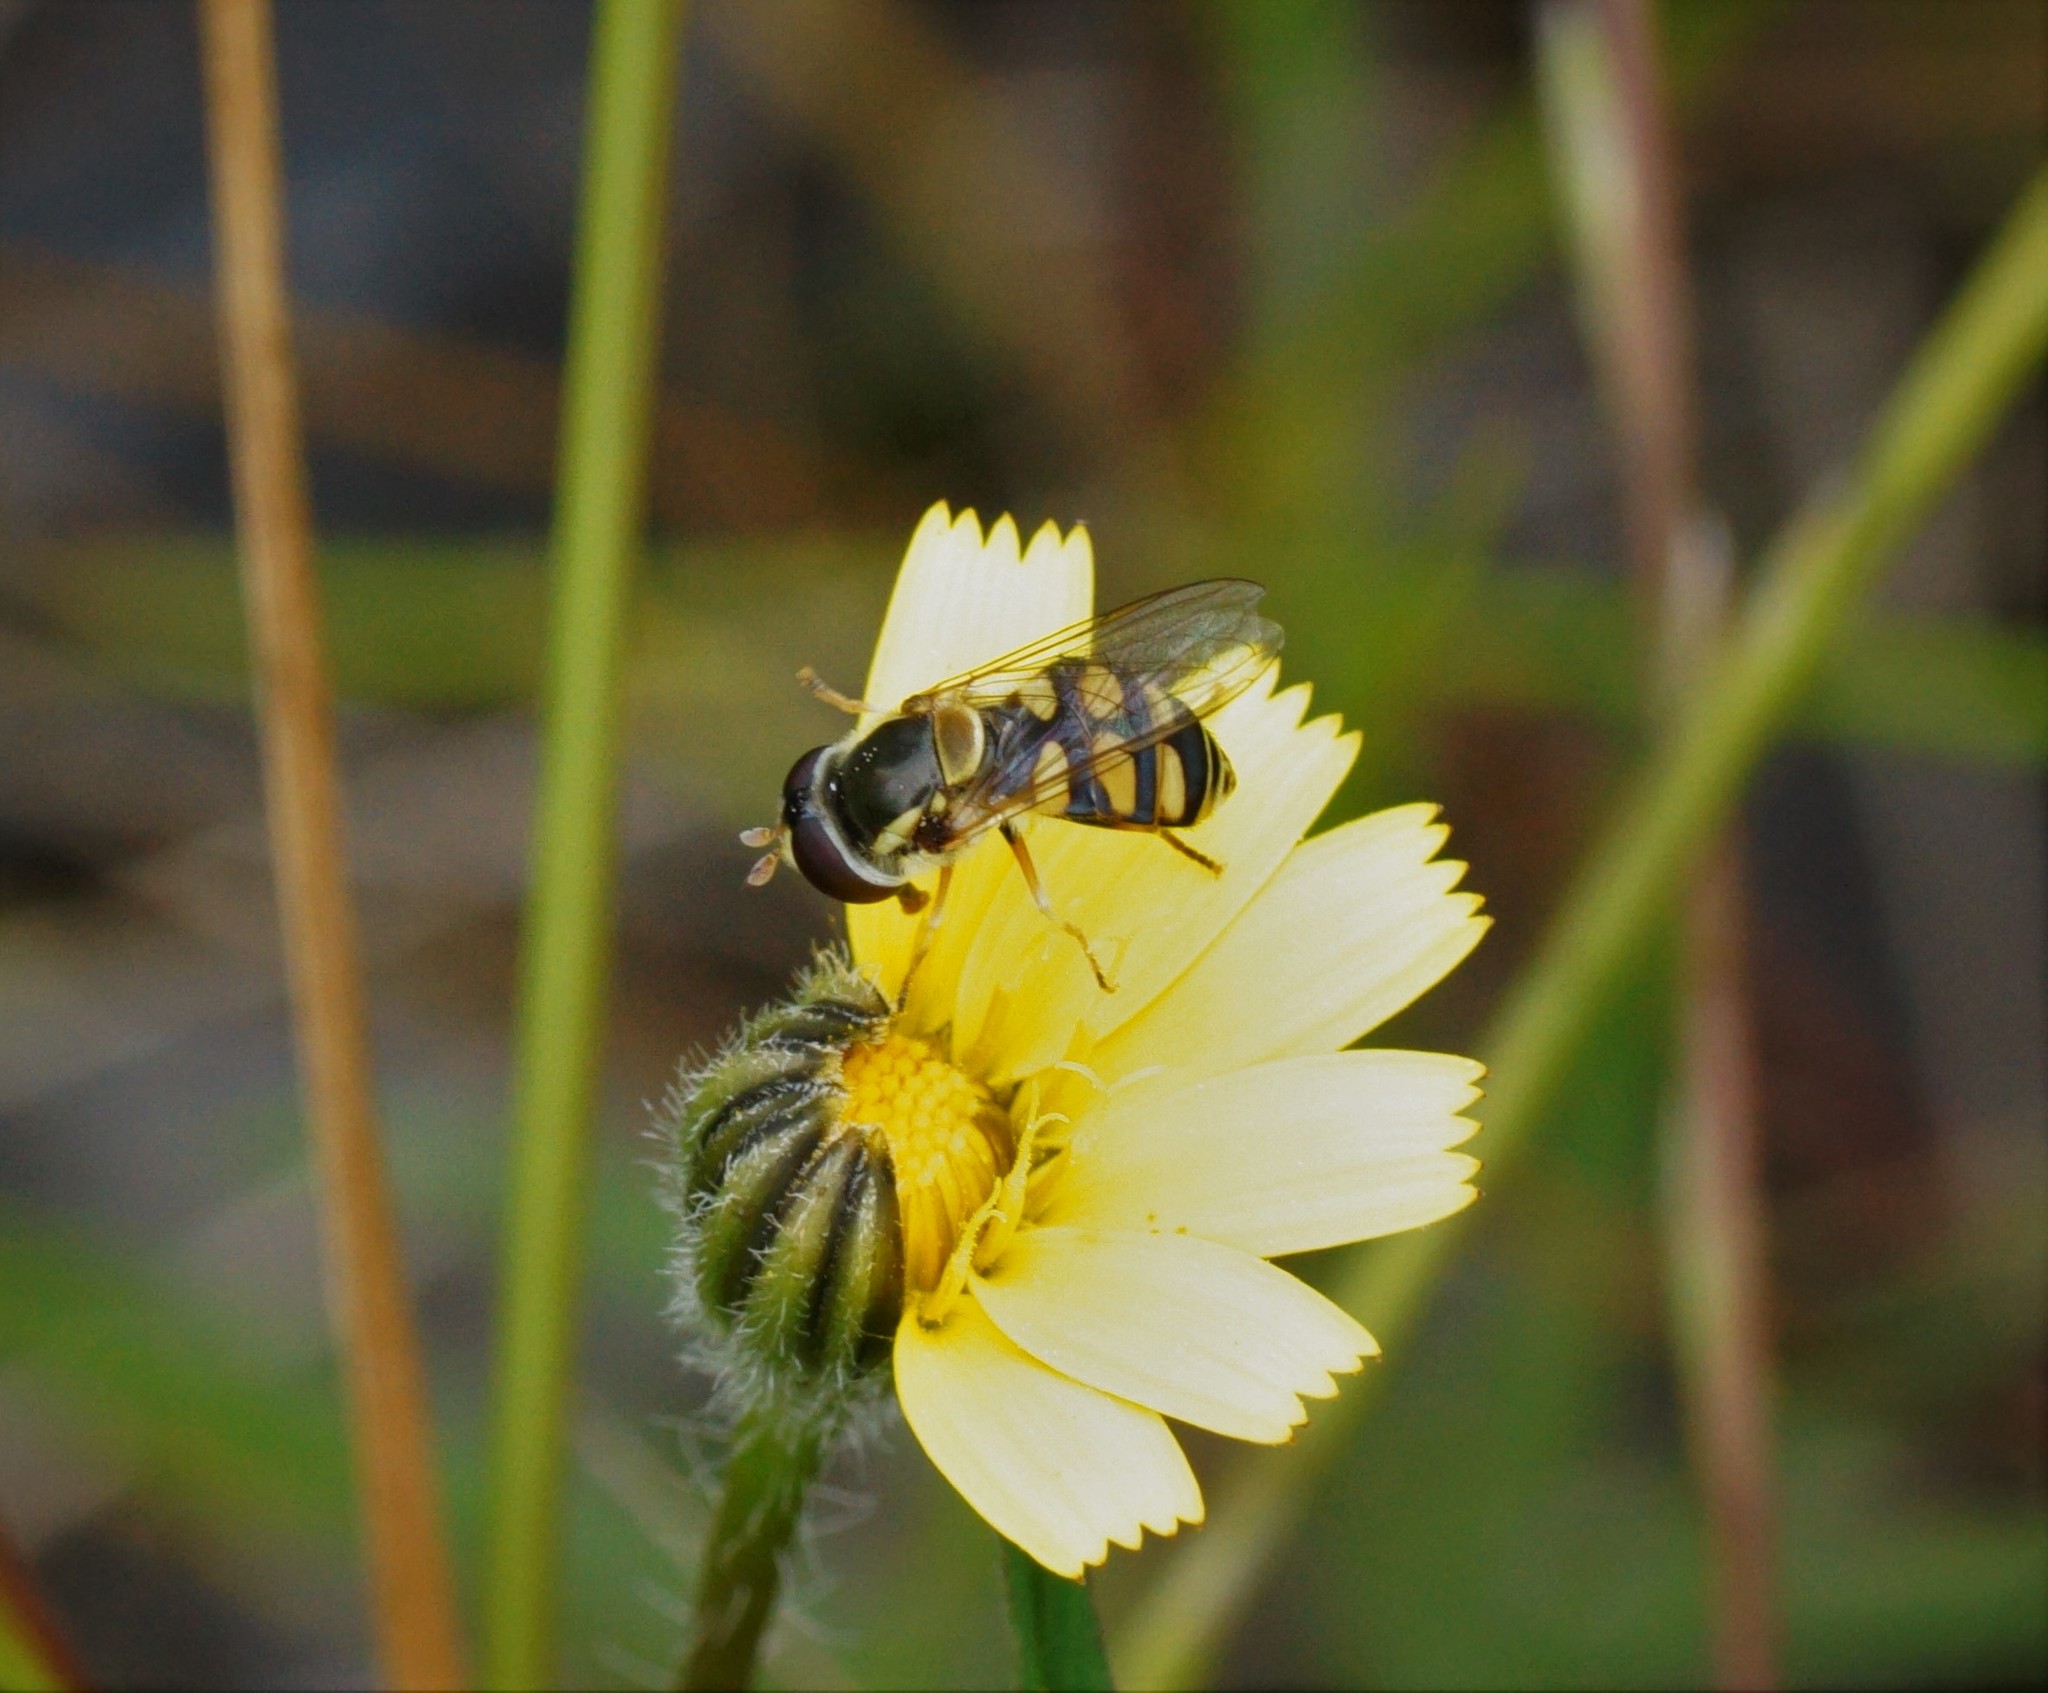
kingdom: Animalia
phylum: Arthropoda
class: Insecta
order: Diptera
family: Syrphidae
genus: Simosyrphus
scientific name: Simosyrphus grandicornis
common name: Hoverfly
